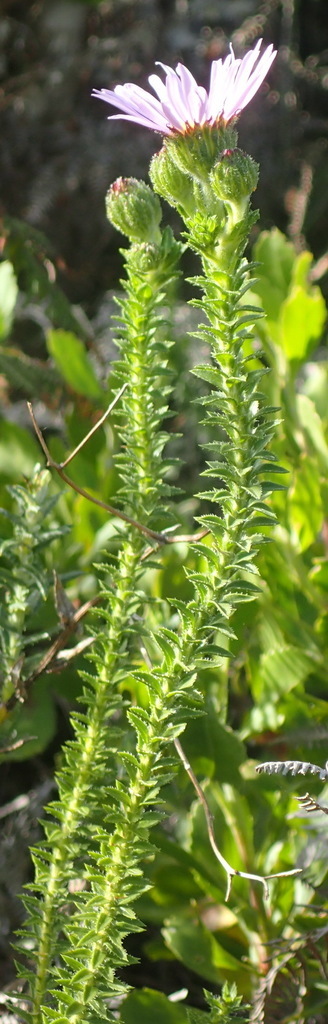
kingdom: Plantae
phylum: Tracheophyta
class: Magnoliopsida
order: Asterales
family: Asteraceae
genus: Felicia
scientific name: Felicia echinata
